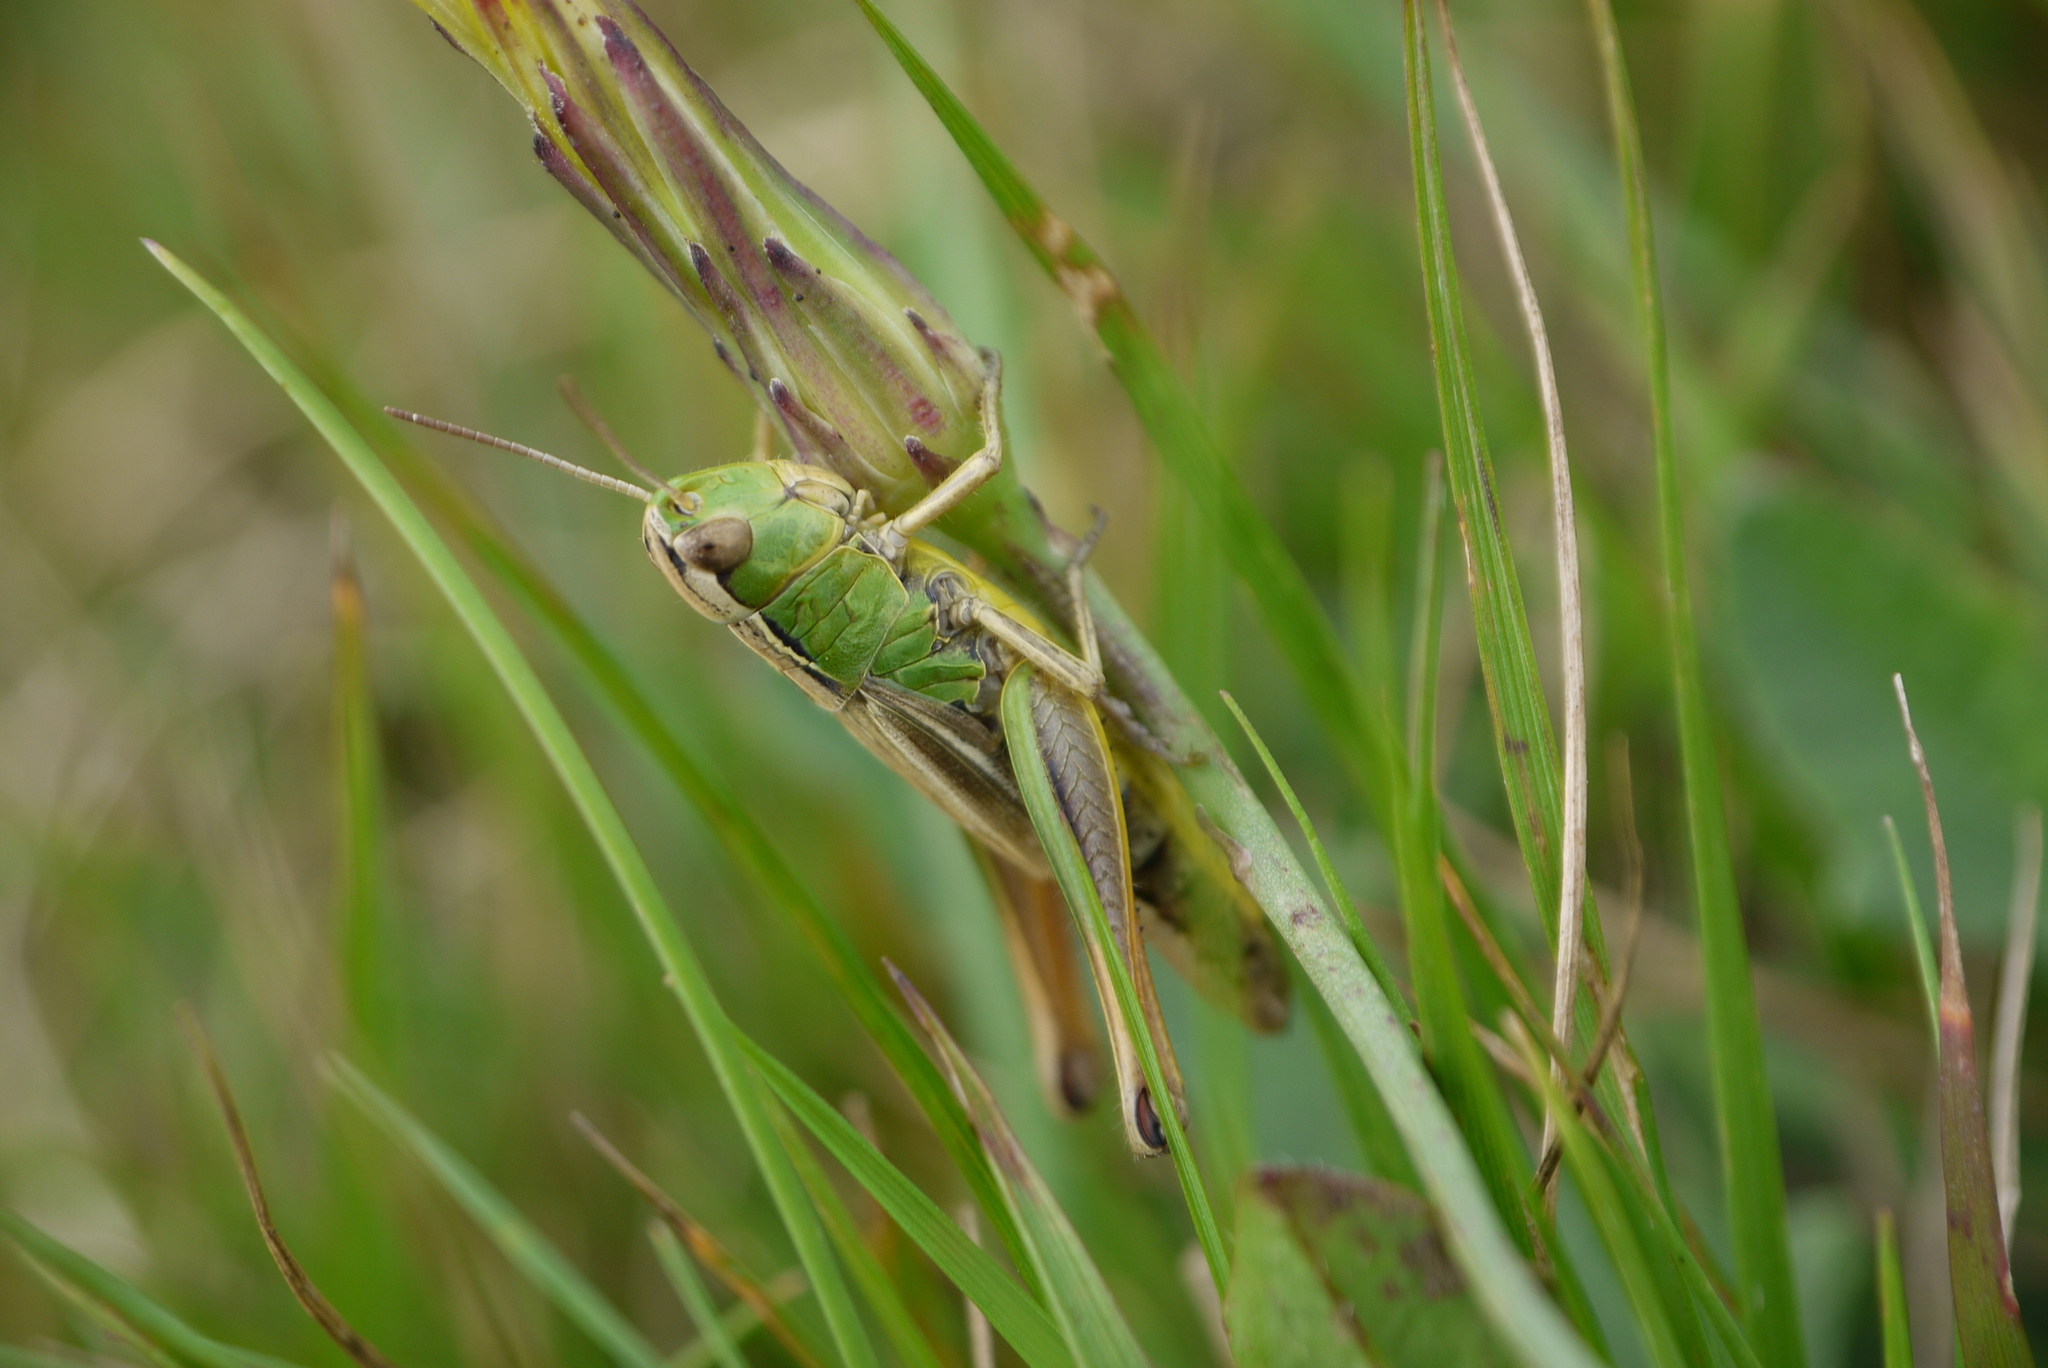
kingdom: Animalia
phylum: Arthropoda
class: Insecta
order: Orthoptera
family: Acrididae
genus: Pseudochorthippus
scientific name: Pseudochorthippus parallelus
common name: Meadow grasshopper
